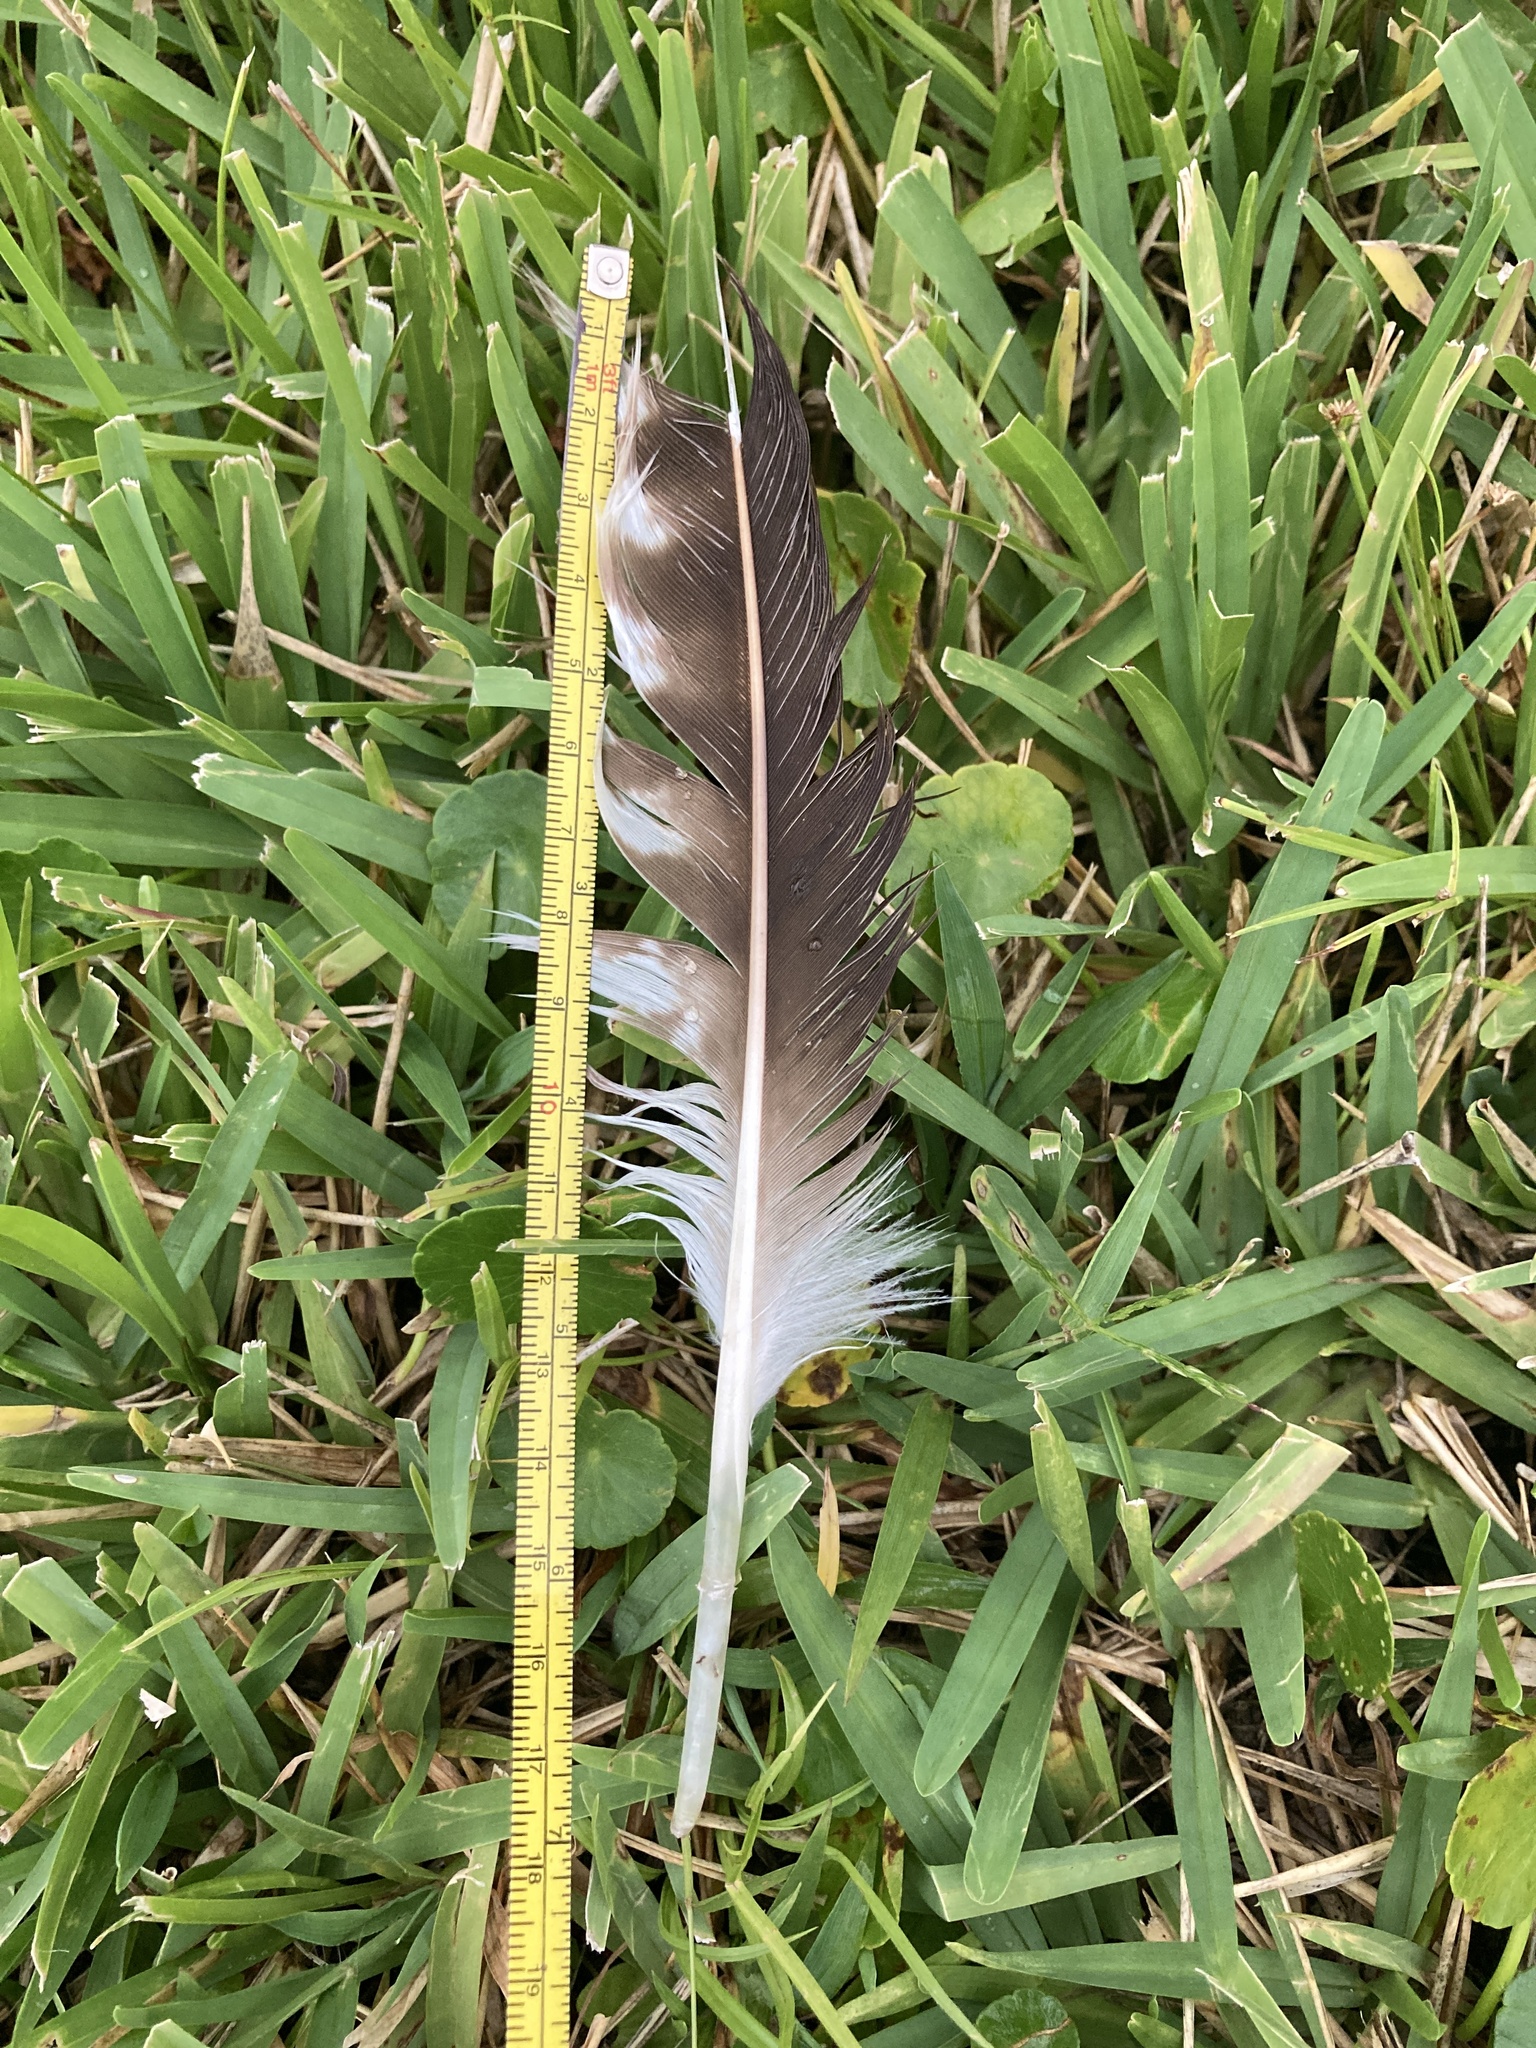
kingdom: Animalia
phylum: Chordata
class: Aves
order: Accipitriformes
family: Pandionidae
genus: Pandion
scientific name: Pandion haliaetus
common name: Osprey
